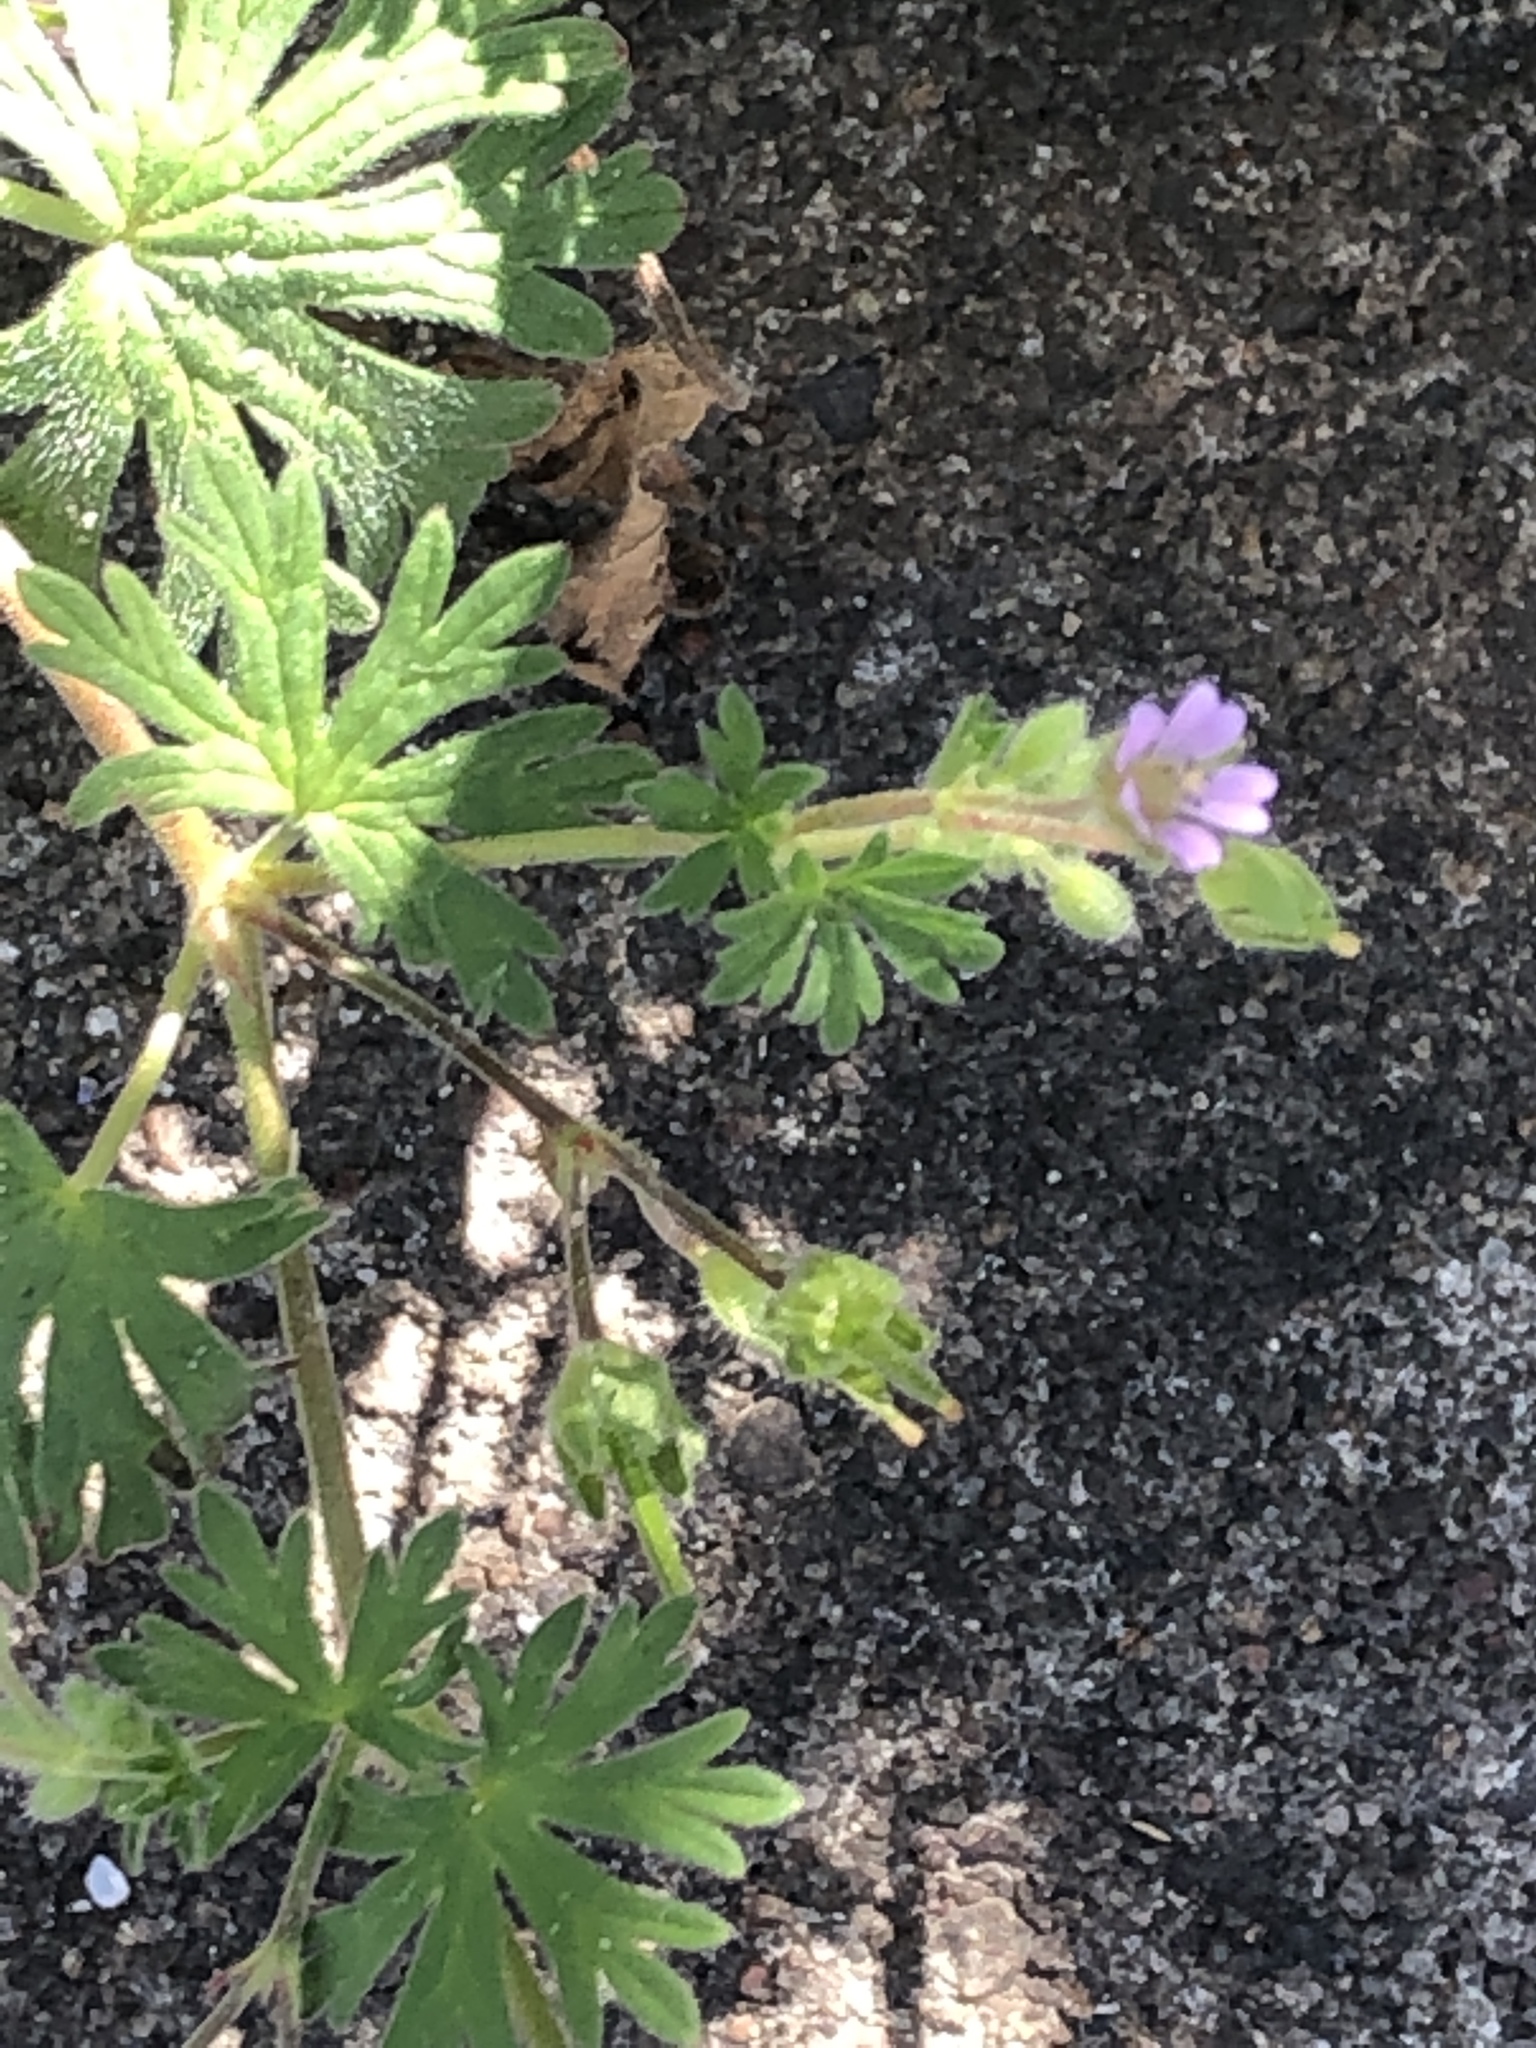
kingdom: Plantae
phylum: Tracheophyta
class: Magnoliopsida
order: Geraniales
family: Geraniaceae
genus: Geranium
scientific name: Geranium pusillum
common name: Small geranium
